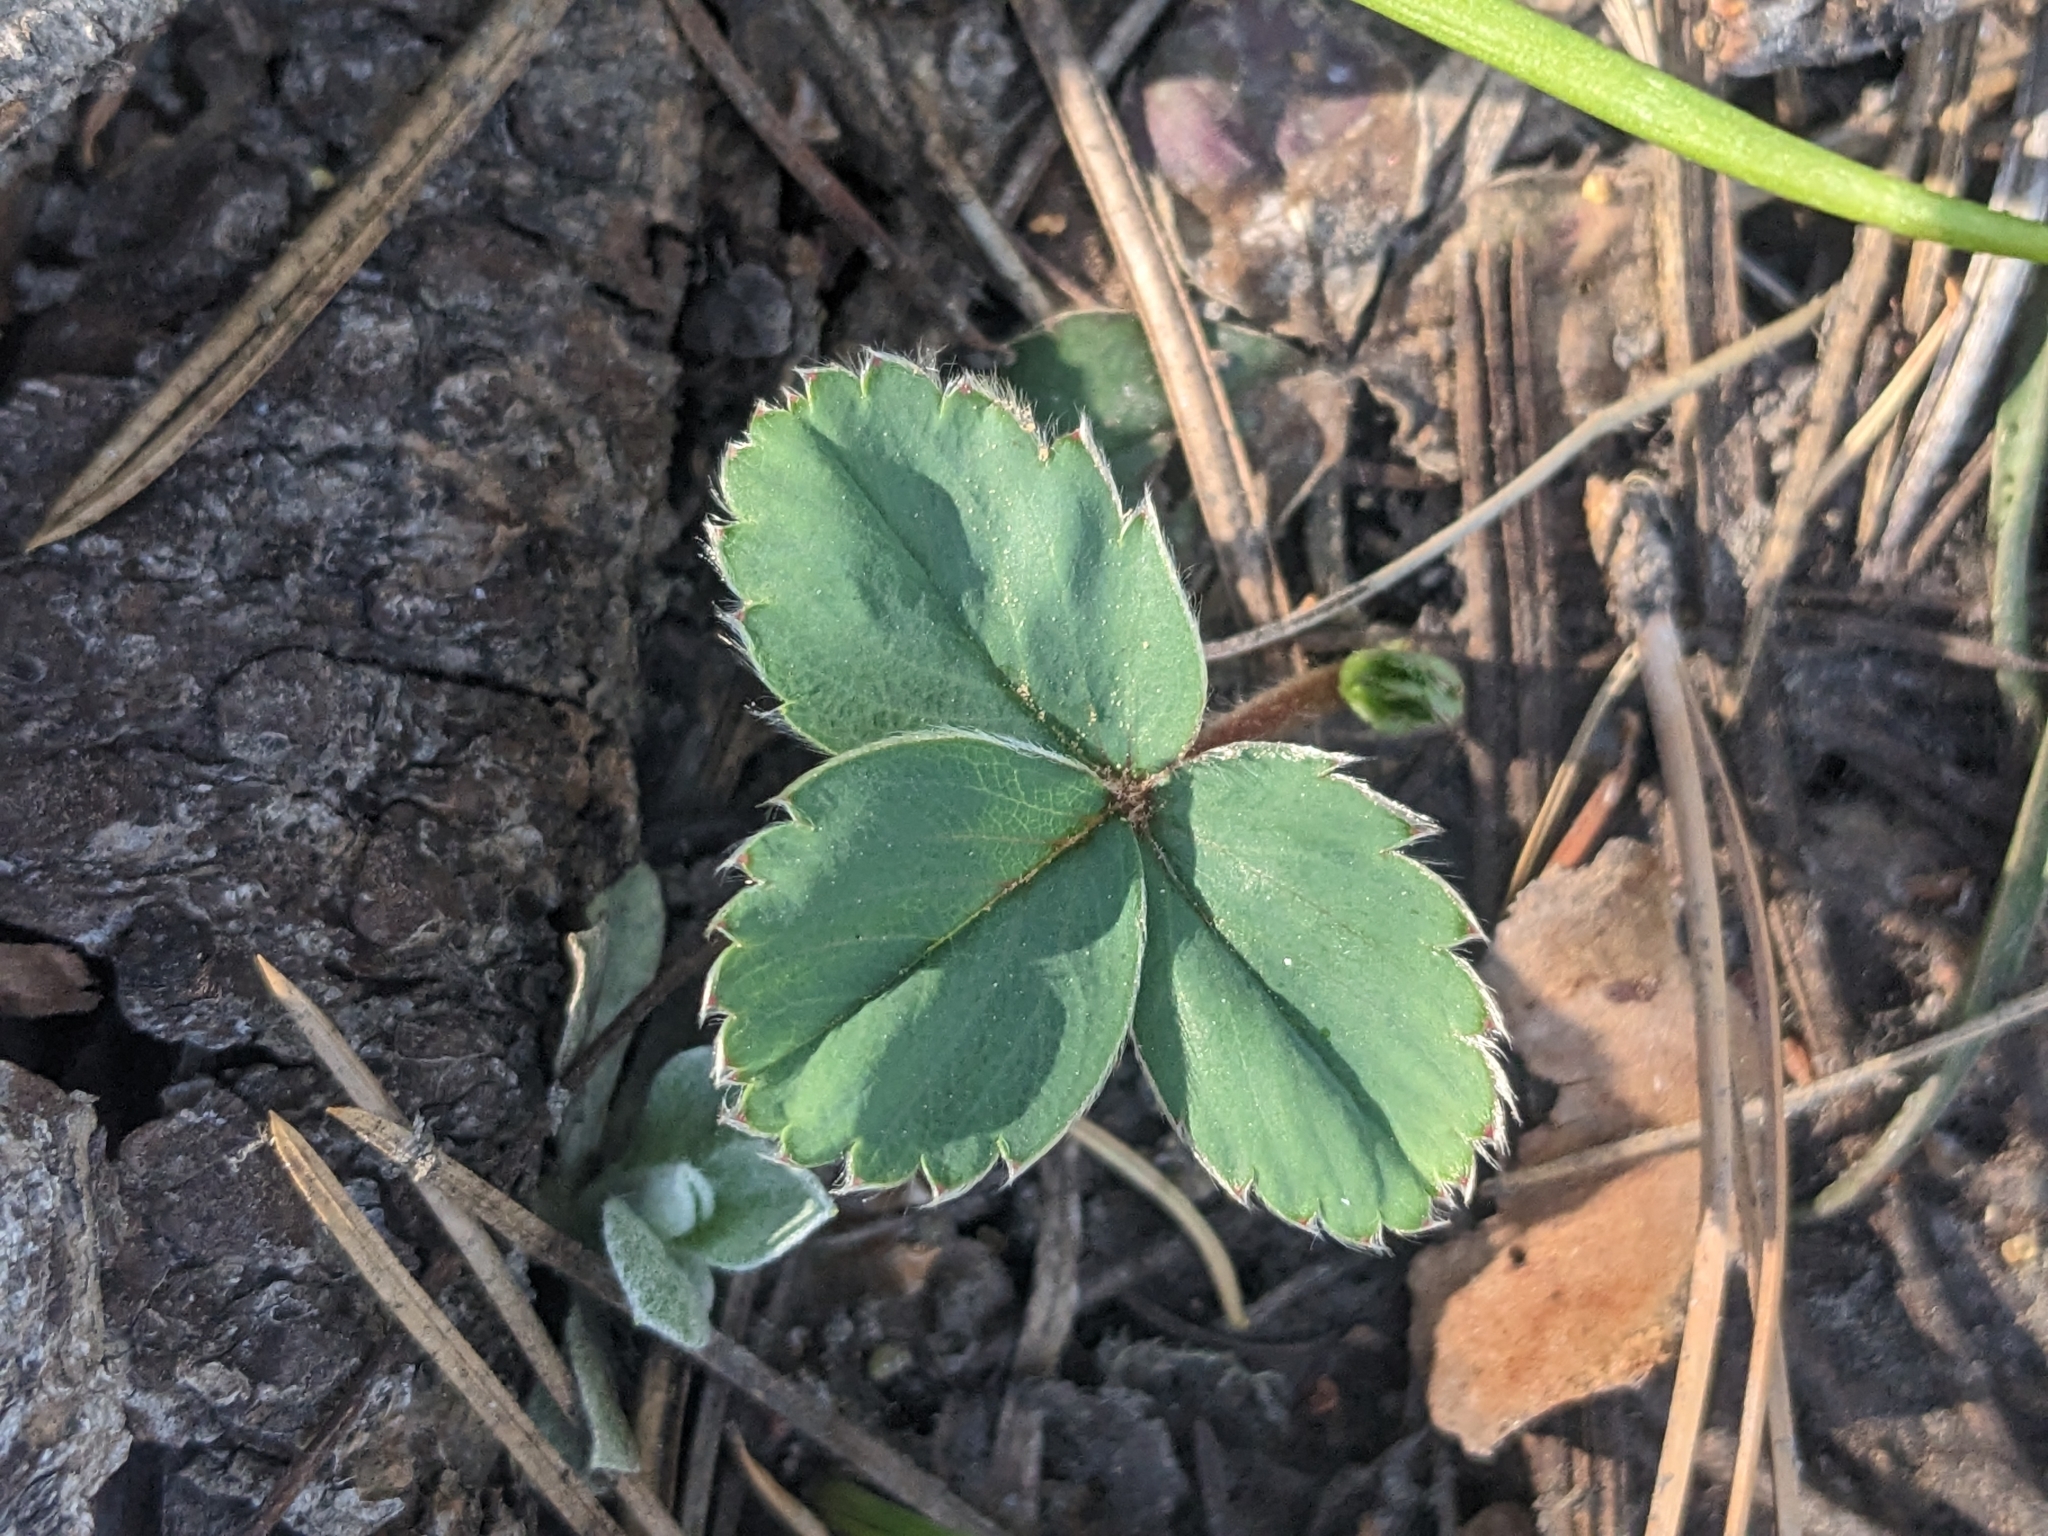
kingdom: Plantae
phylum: Tracheophyta
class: Magnoliopsida
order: Rosales
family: Rosaceae
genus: Fragaria
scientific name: Fragaria virginiana
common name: Thickleaved wild strawberry
